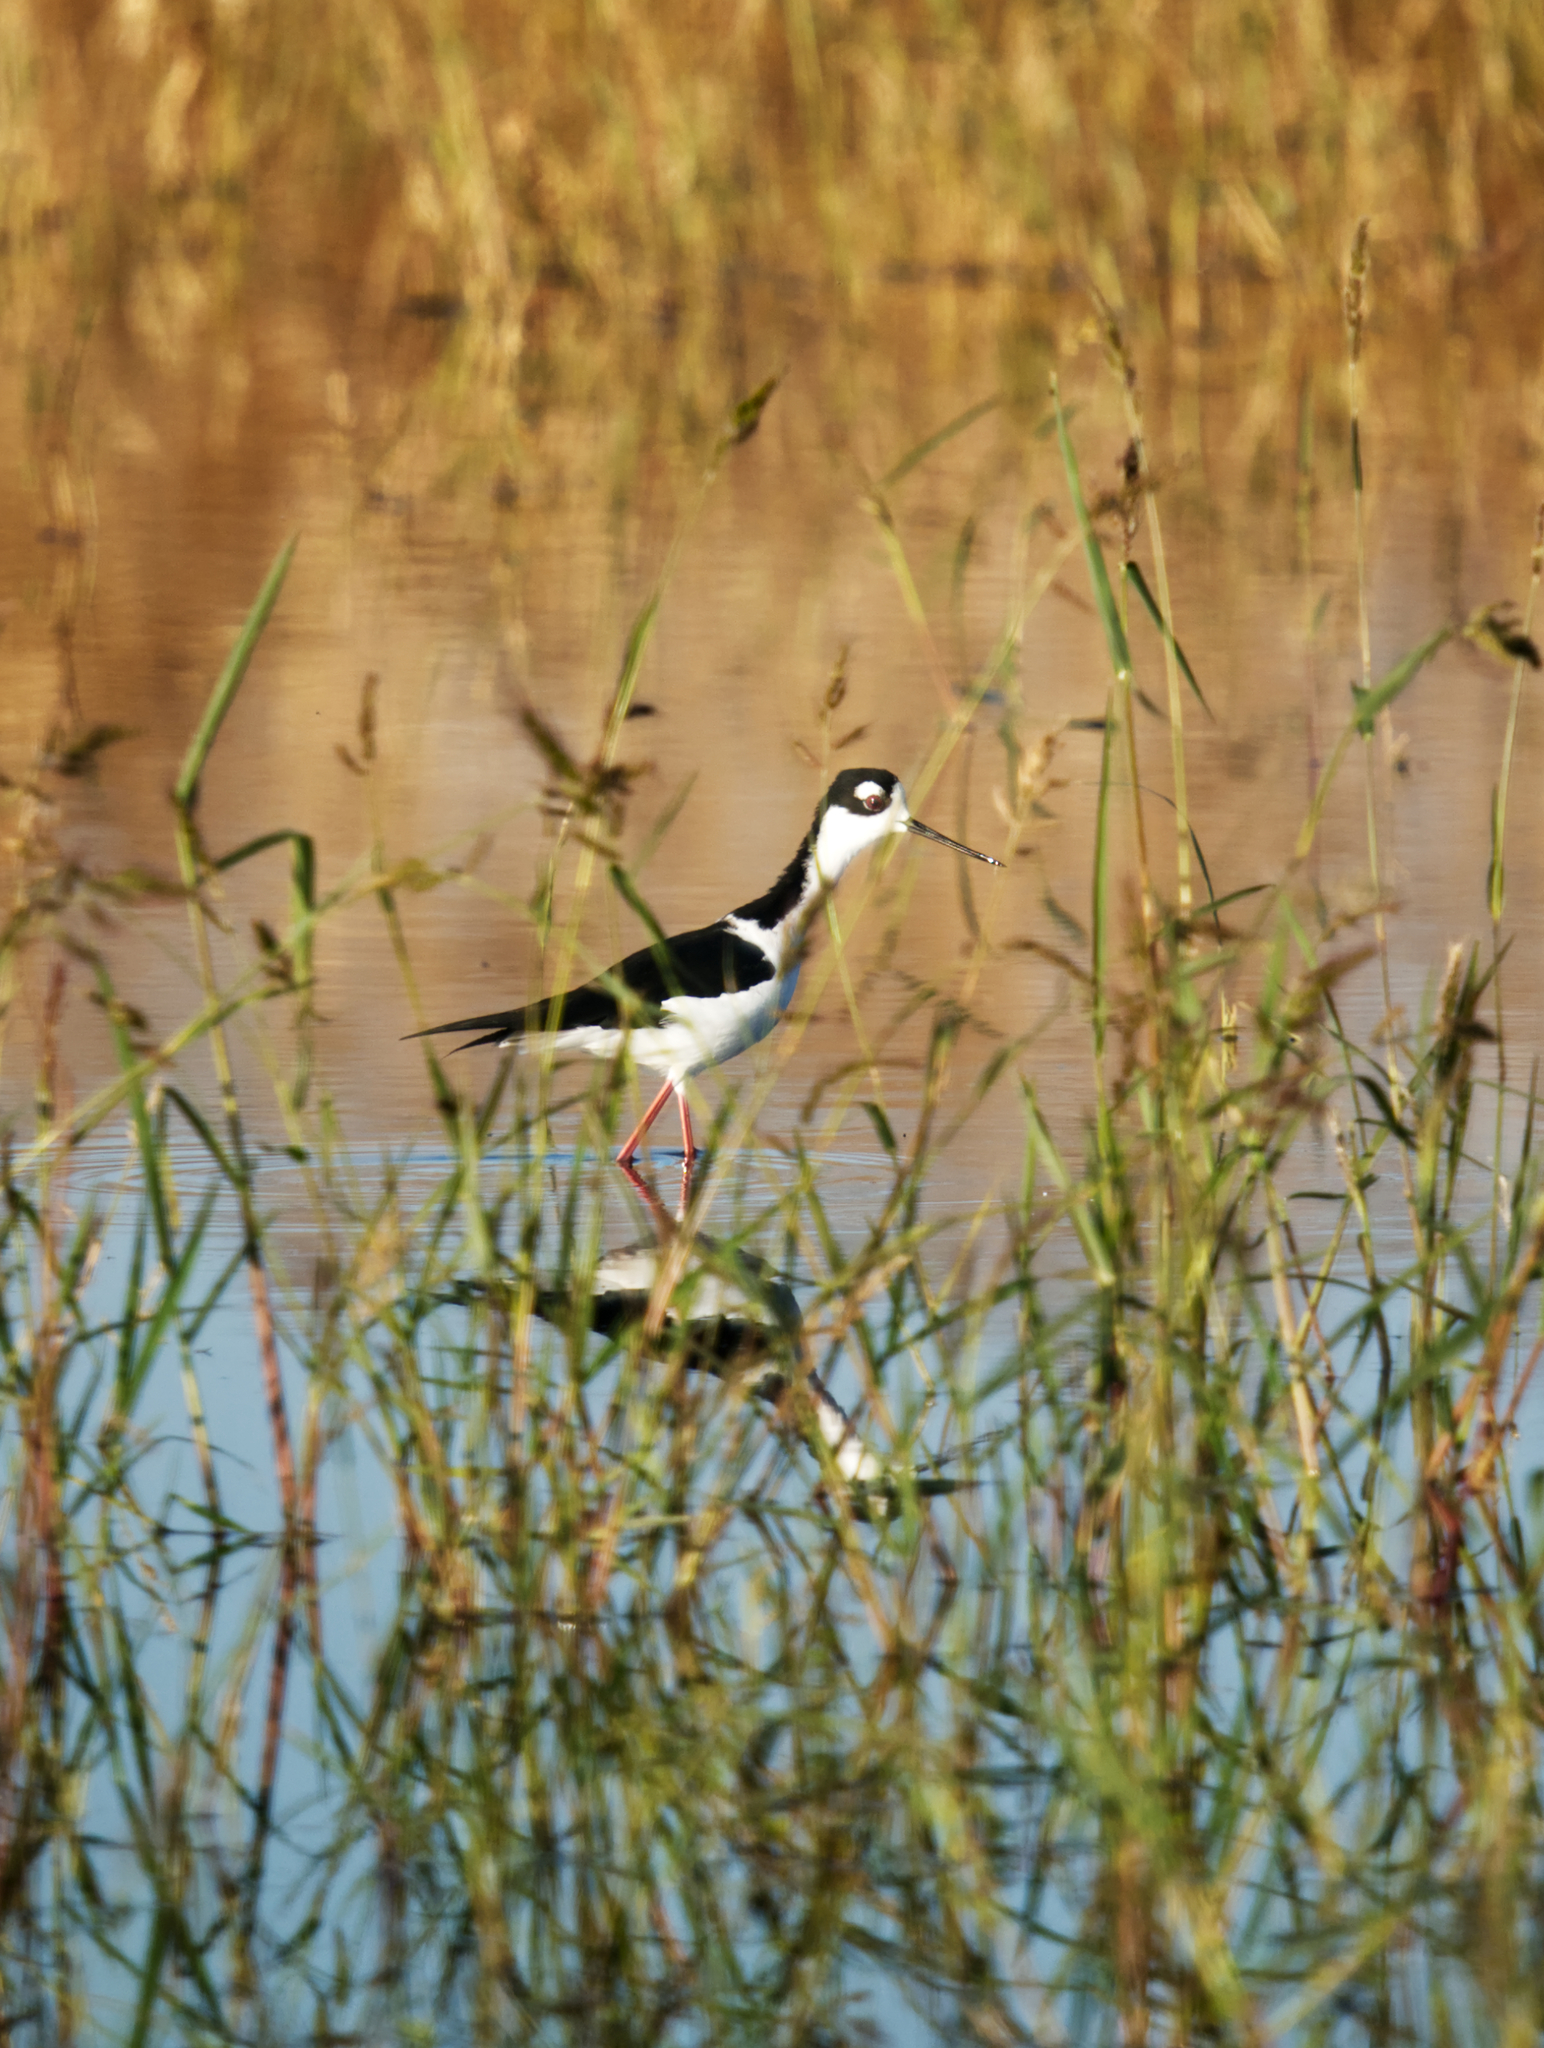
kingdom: Animalia
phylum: Chordata
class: Aves
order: Charadriiformes
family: Recurvirostridae
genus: Himantopus
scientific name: Himantopus mexicanus
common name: Black-necked stilt
